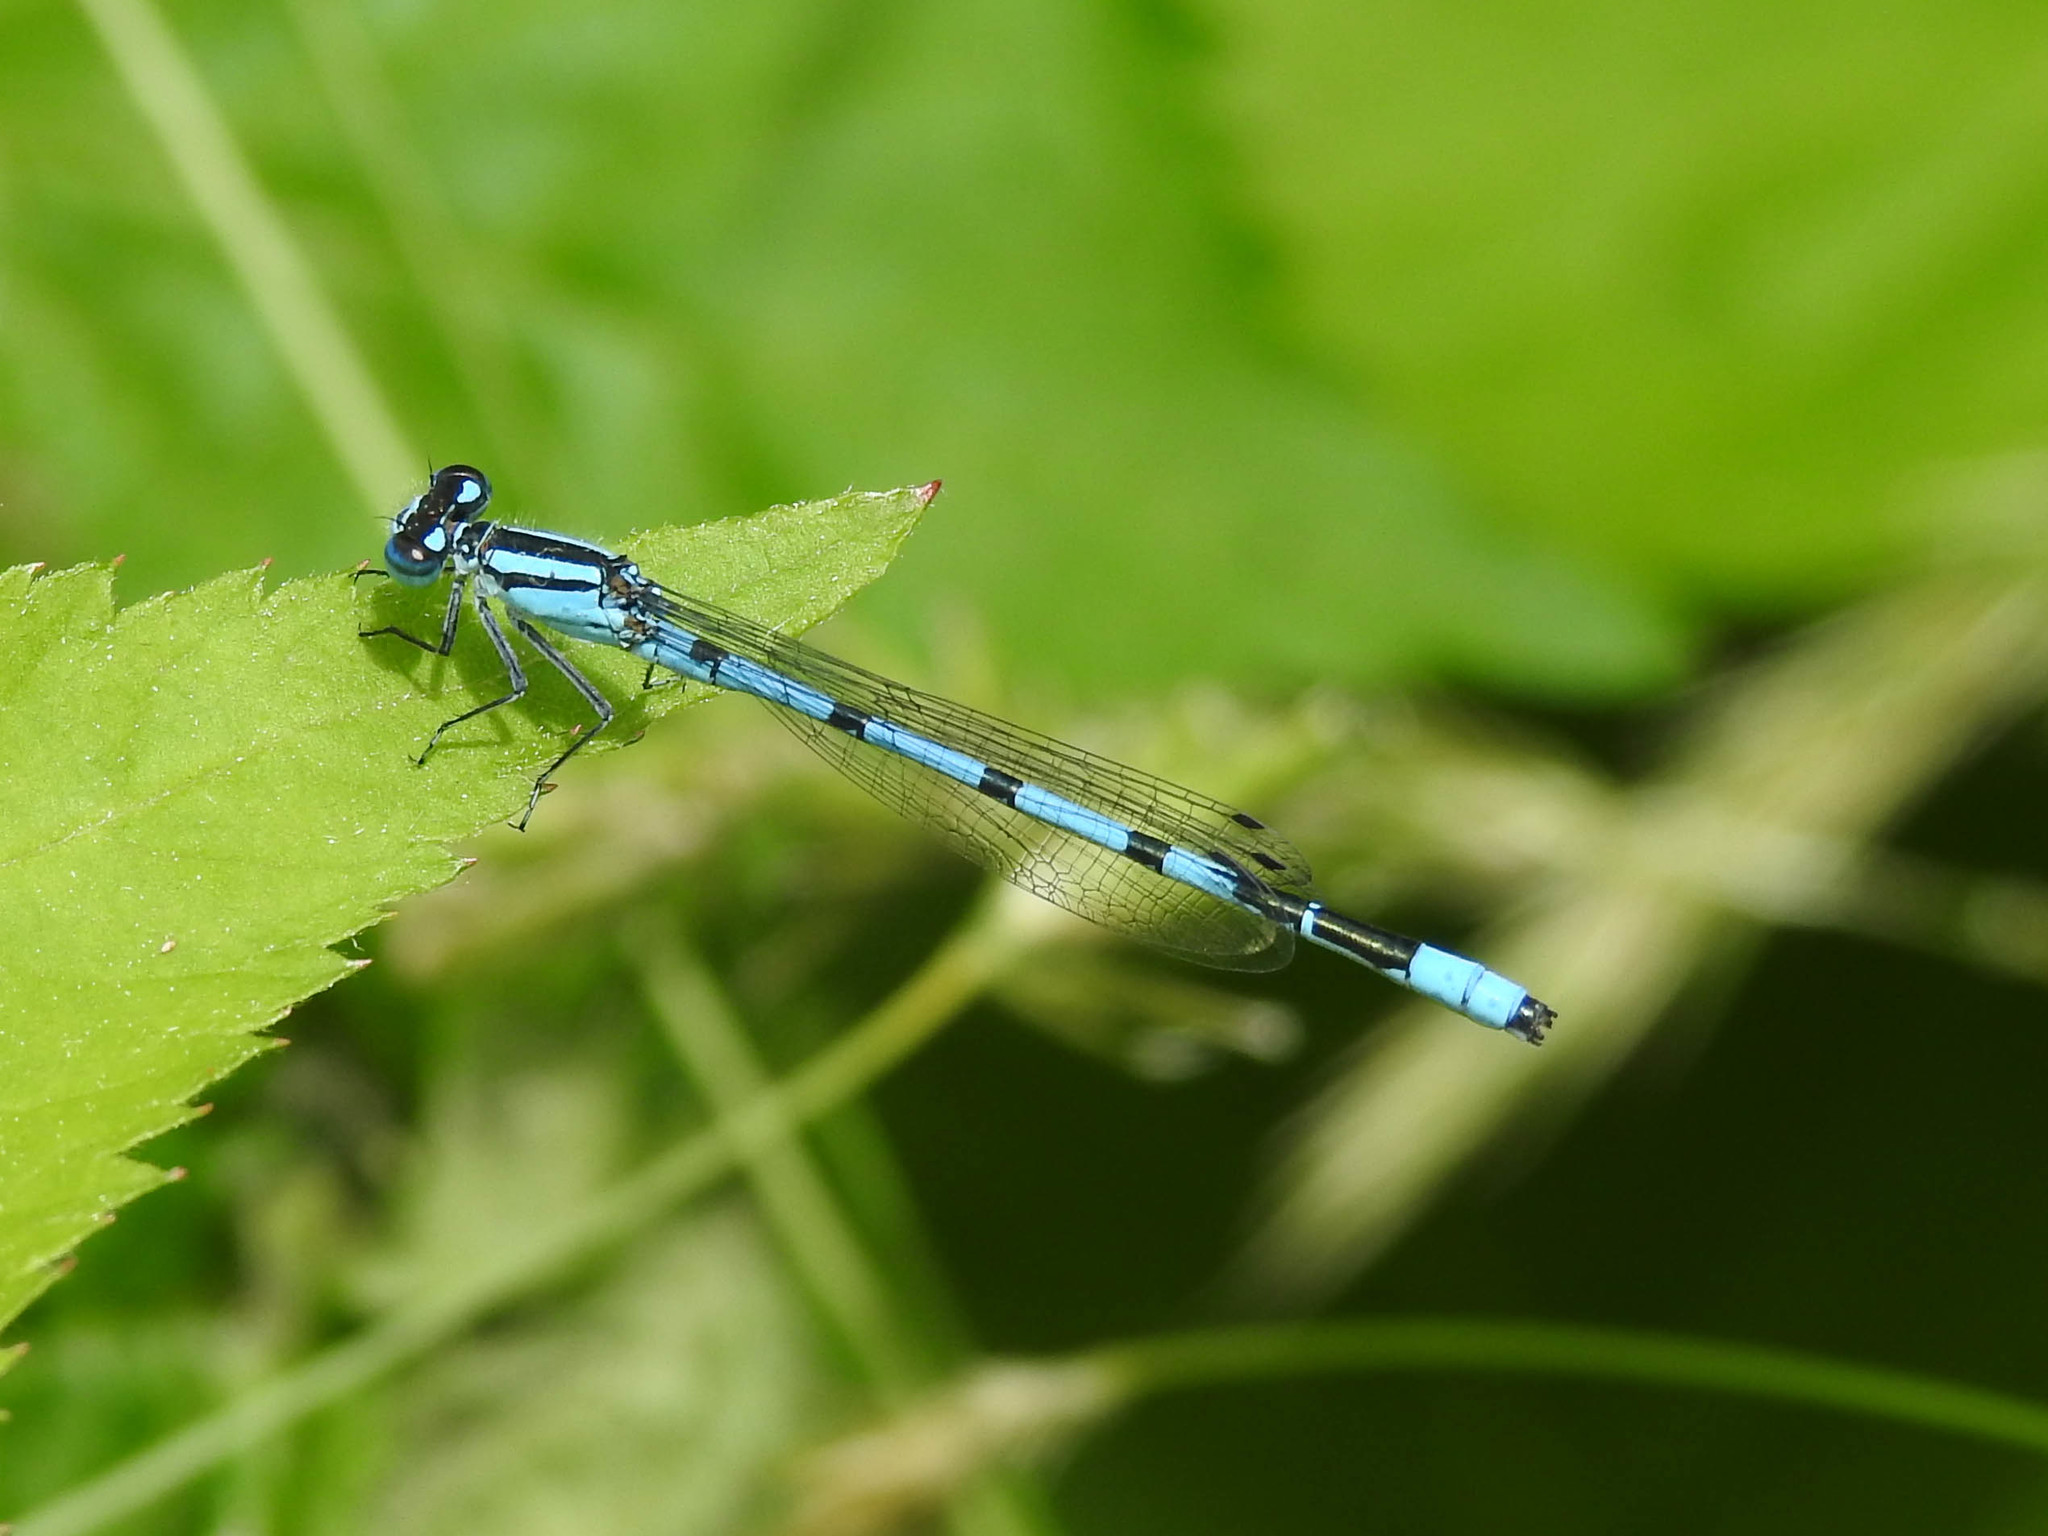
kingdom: Animalia
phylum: Arthropoda
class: Insecta
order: Odonata
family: Coenagrionidae
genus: Enallagma
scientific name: Enallagma ebrium
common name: Marsh bluet
